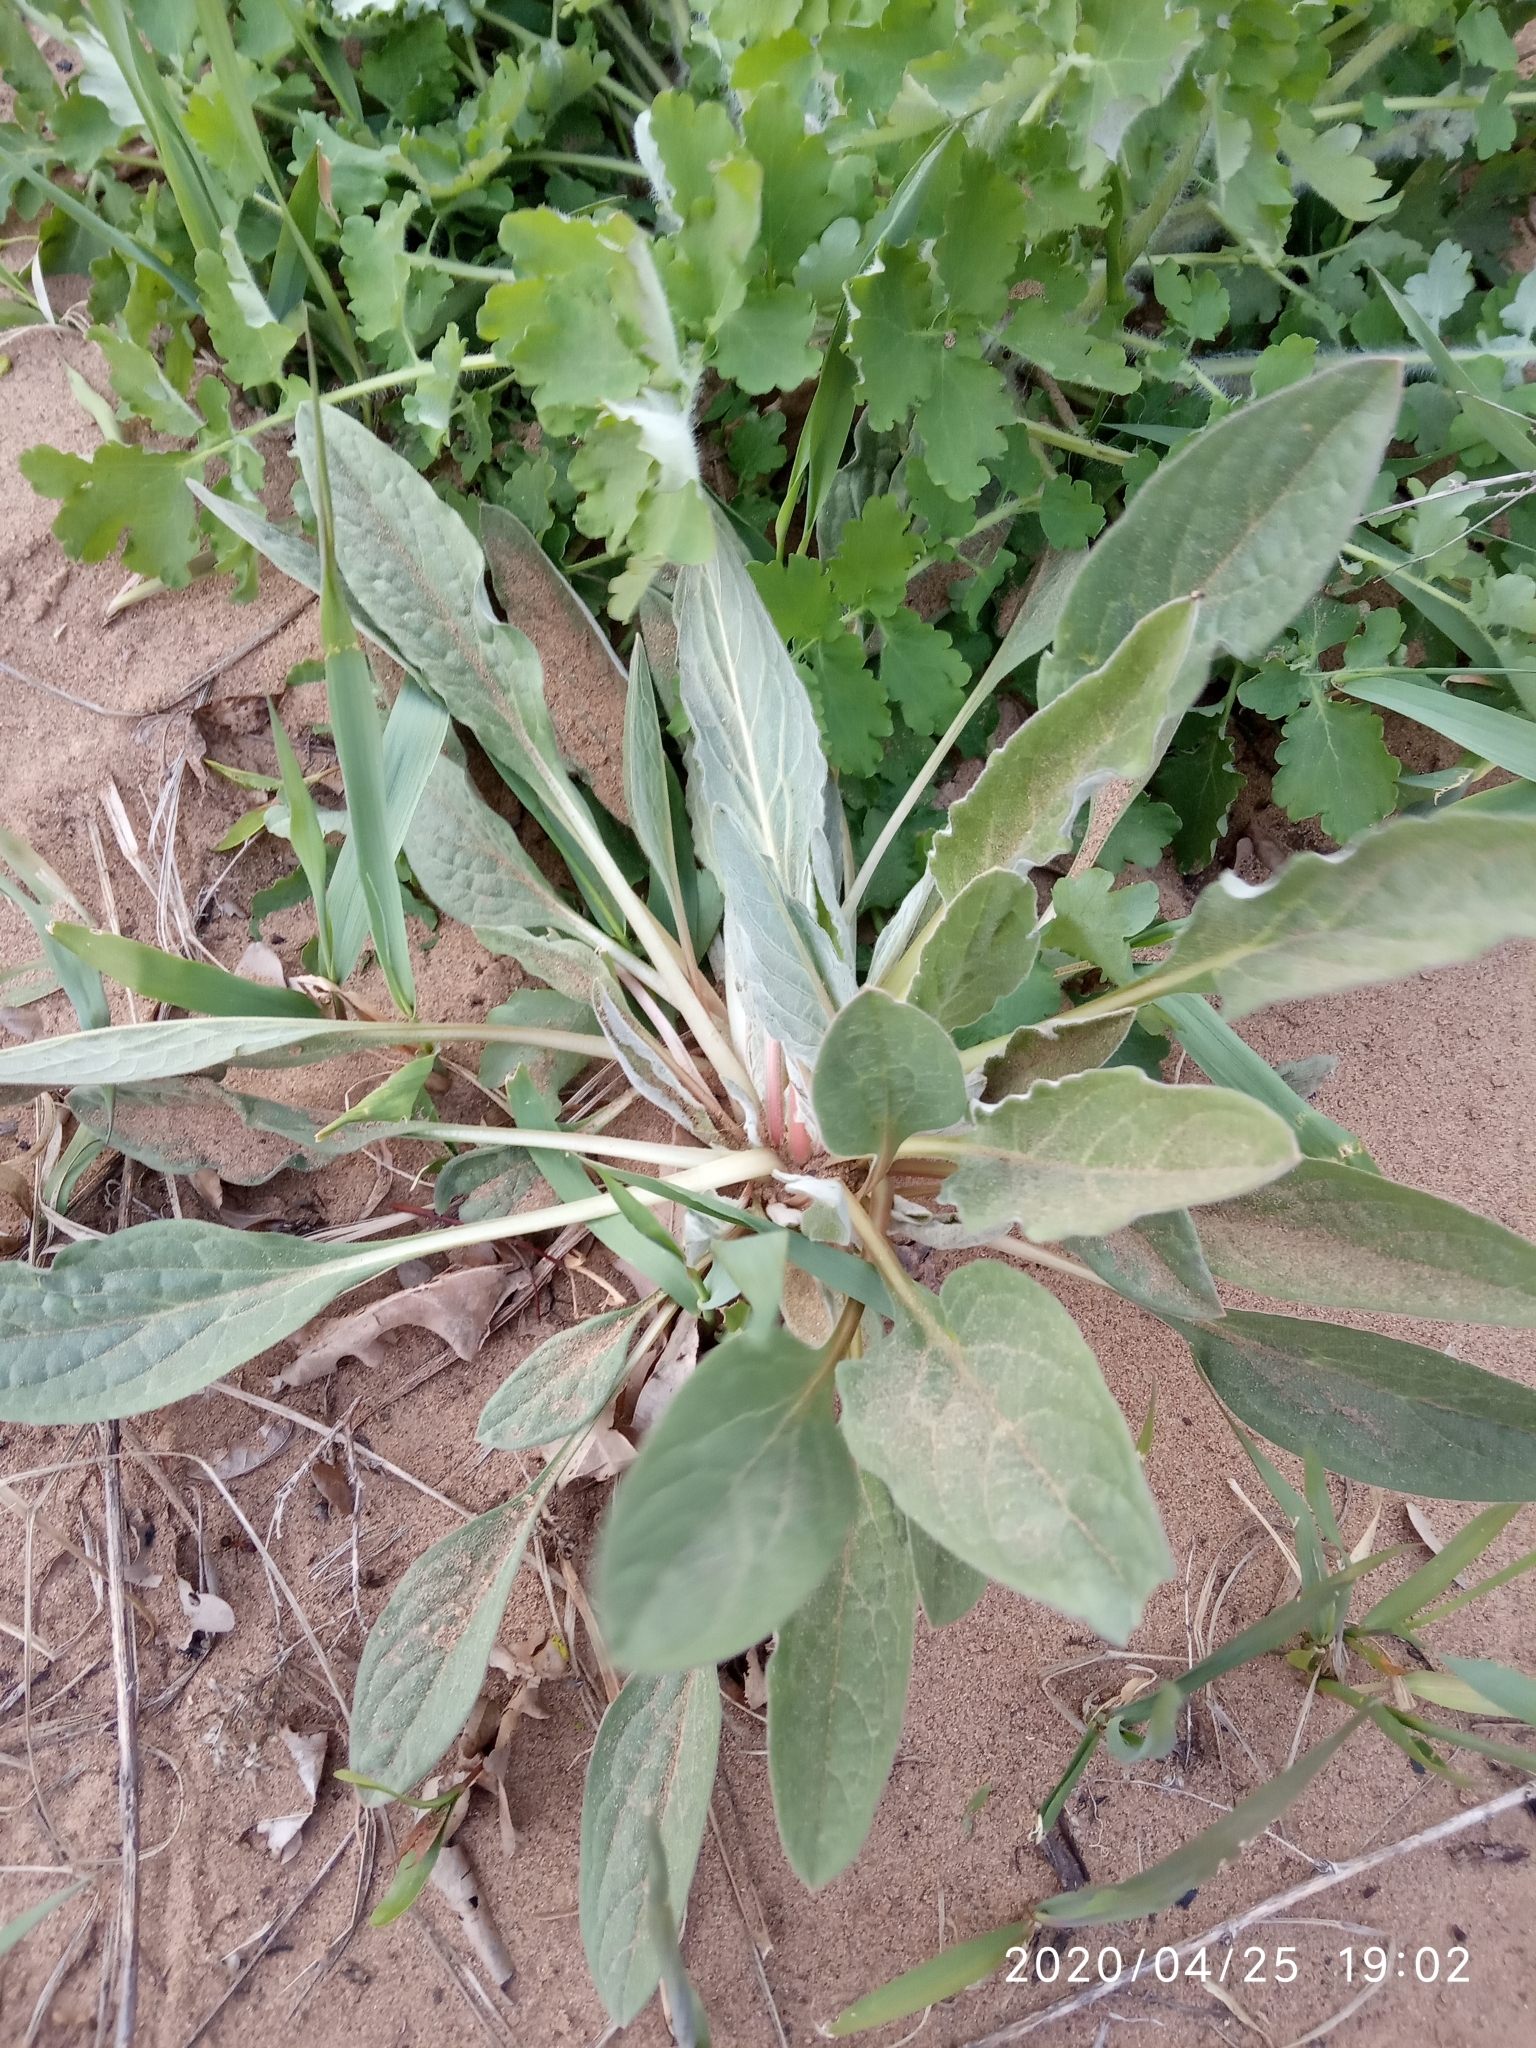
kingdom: Plantae
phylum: Tracheophyta
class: Magnoliopsida
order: Boraginales
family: Boraginaceae
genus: Cynoglossum
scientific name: Cynoglossum officinale
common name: Hound's-tongue
